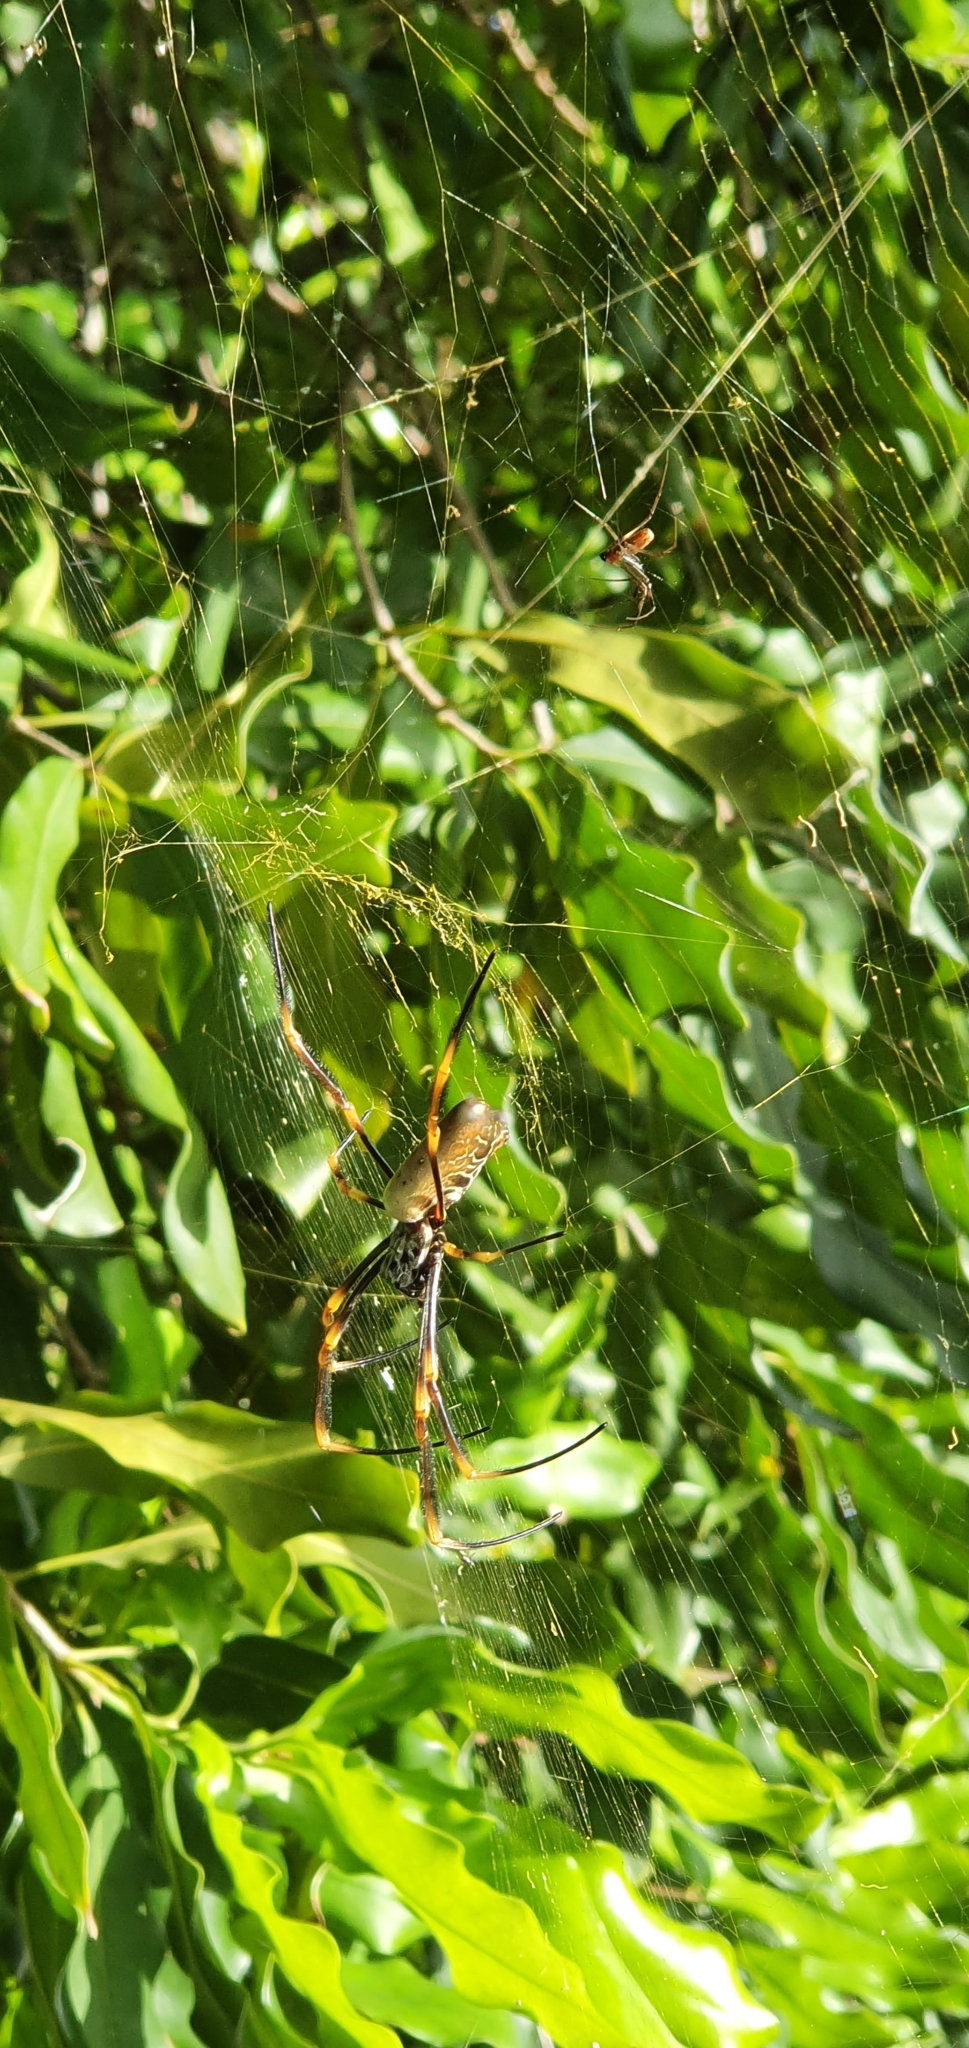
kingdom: Animalia
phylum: Arthropoda
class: Arachnida
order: Araneae
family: Araneidae
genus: Trichonephila
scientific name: Trichonephila plumipes
